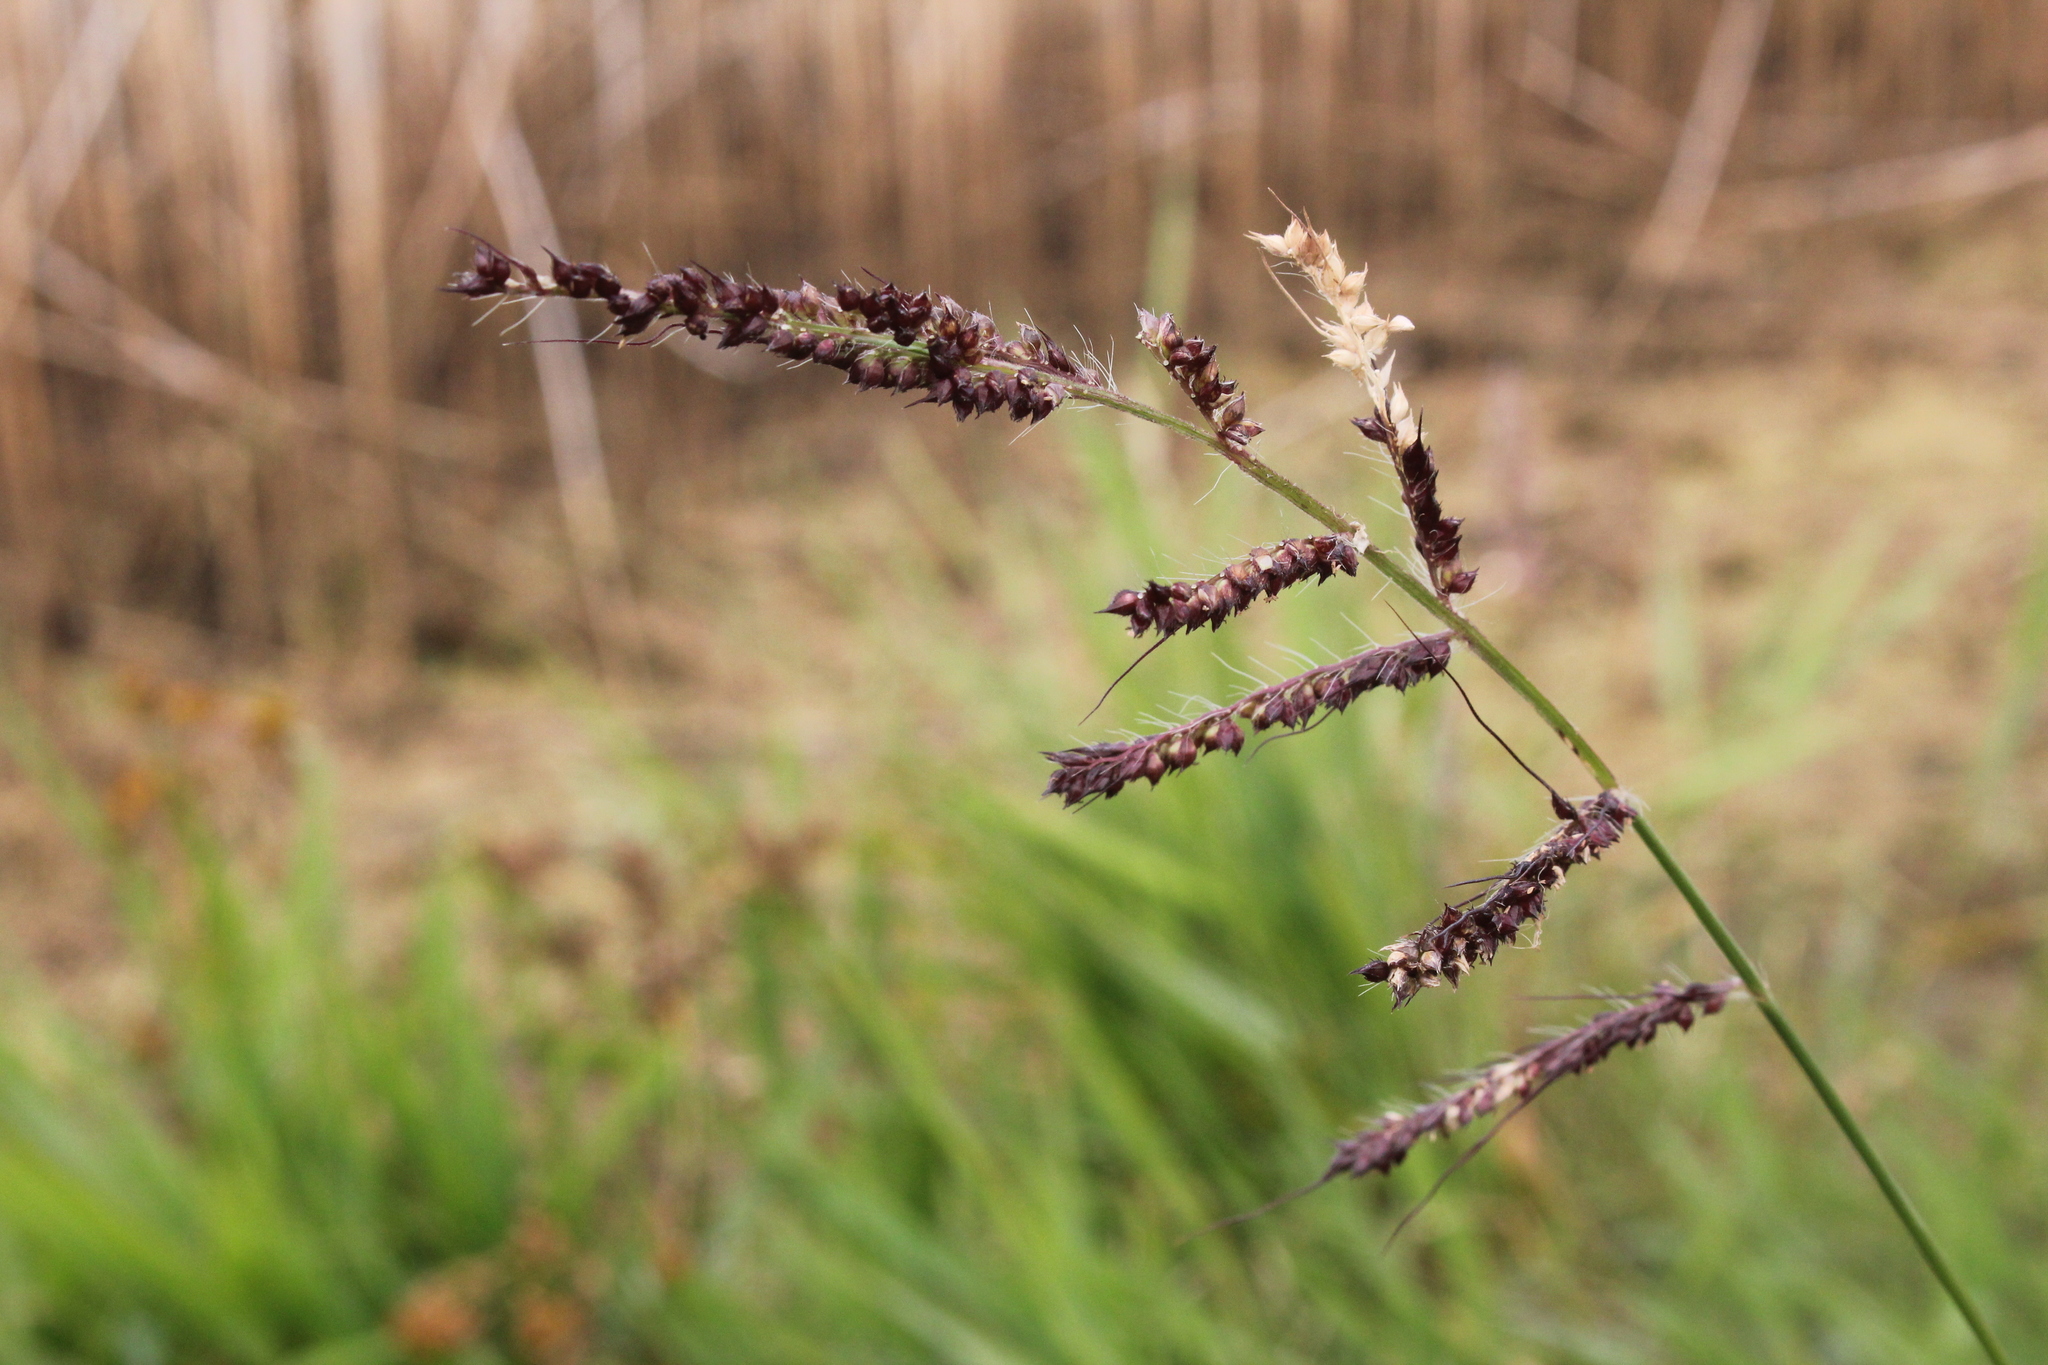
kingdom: Plantae
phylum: Tracheophyta
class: Liliopsida
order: Poales
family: Poaceae
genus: Echinochloa
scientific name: Echinochloa muricata
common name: American barnyard grass
